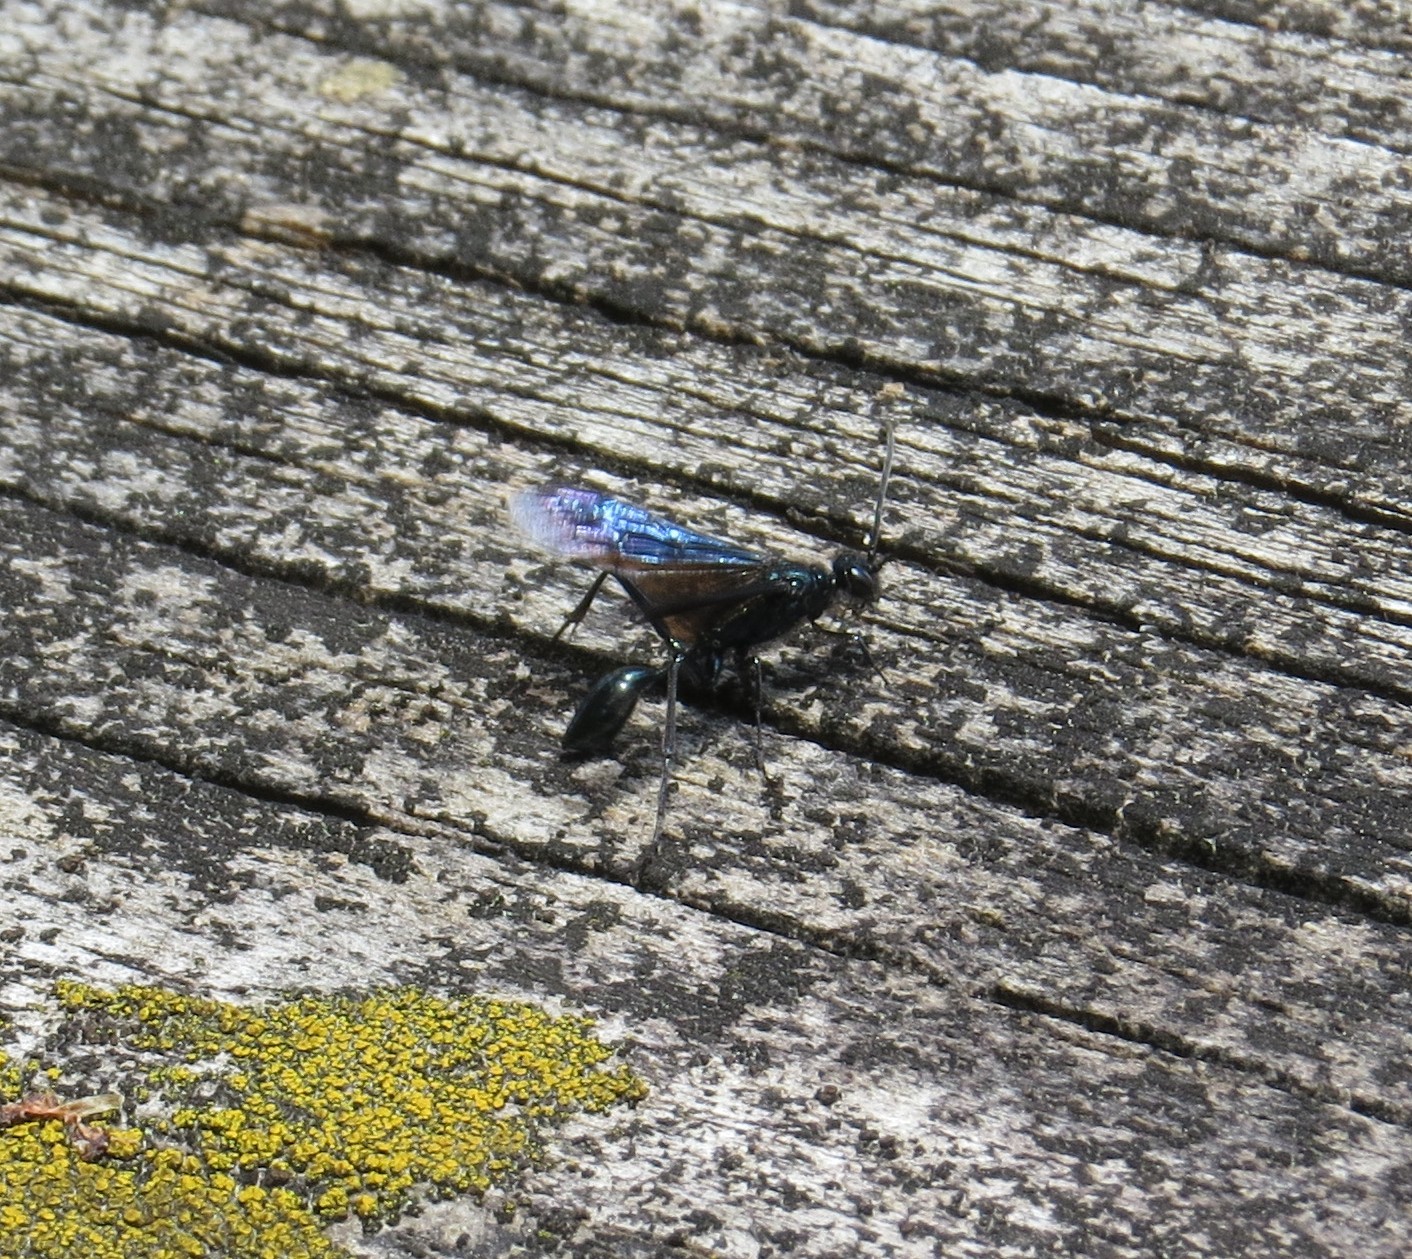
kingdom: Animalia
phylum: Arthropoda
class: Insecta
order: Hymenoptera
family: Sphecidae
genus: Chalybion
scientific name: Chalybion californicum
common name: Mud dauber
